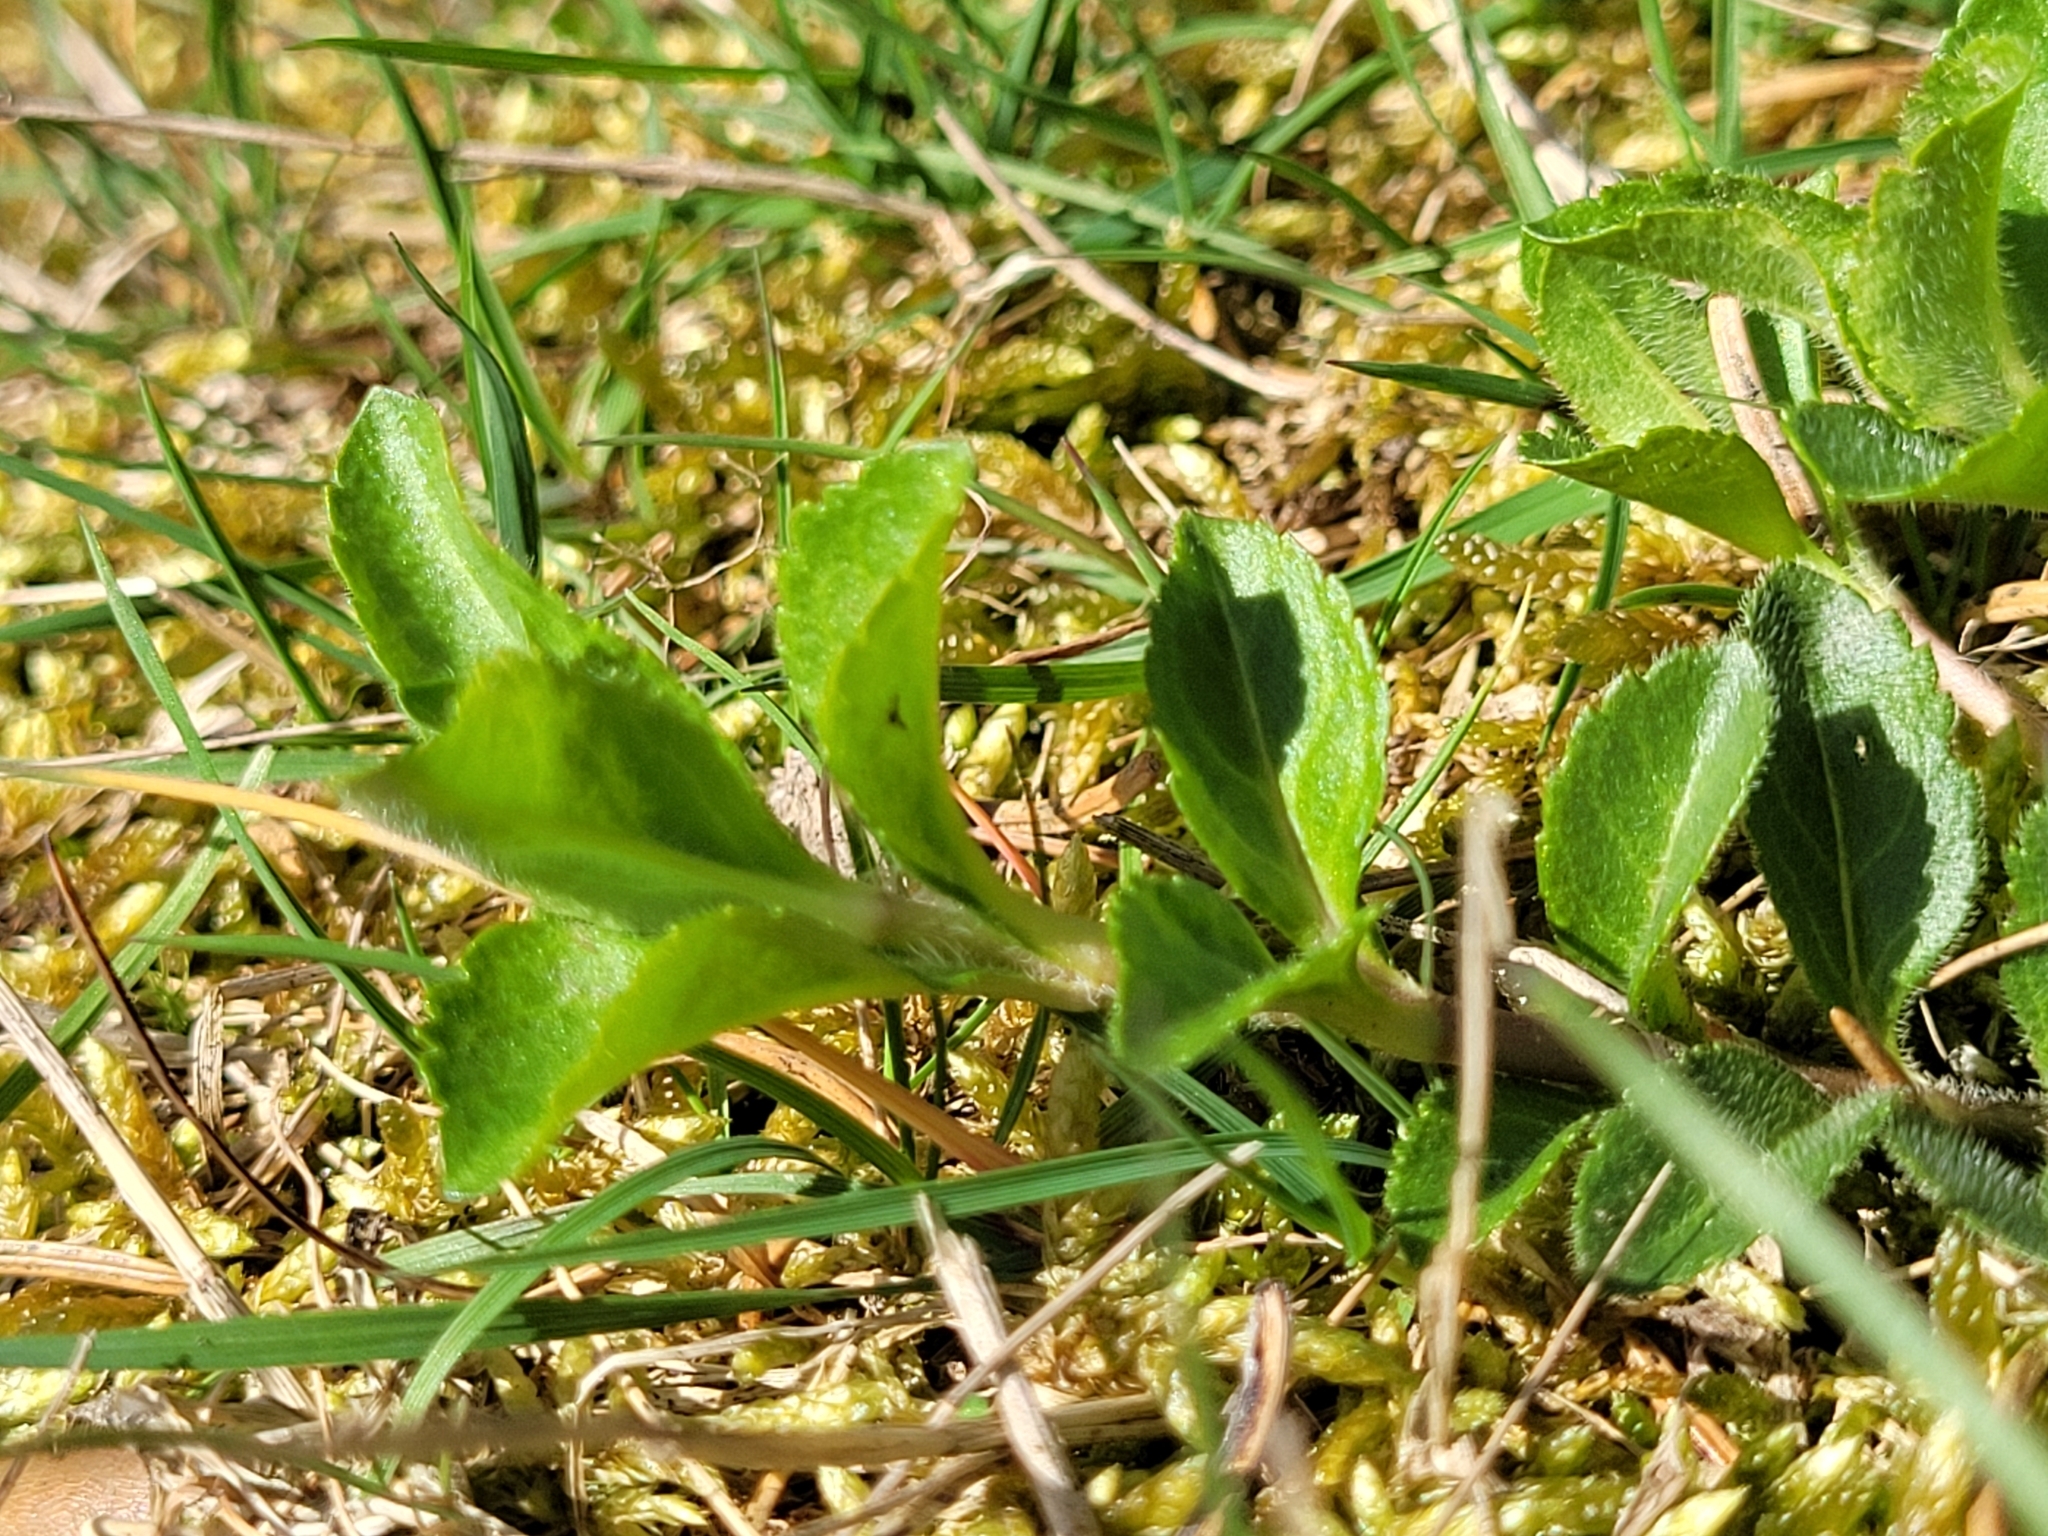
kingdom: Plantae
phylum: Tracheophyta
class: Magnoliopsida
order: Lamiales
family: Plantaginaceae
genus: Veronica
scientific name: Veronica officinalis
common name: Common speedwell
